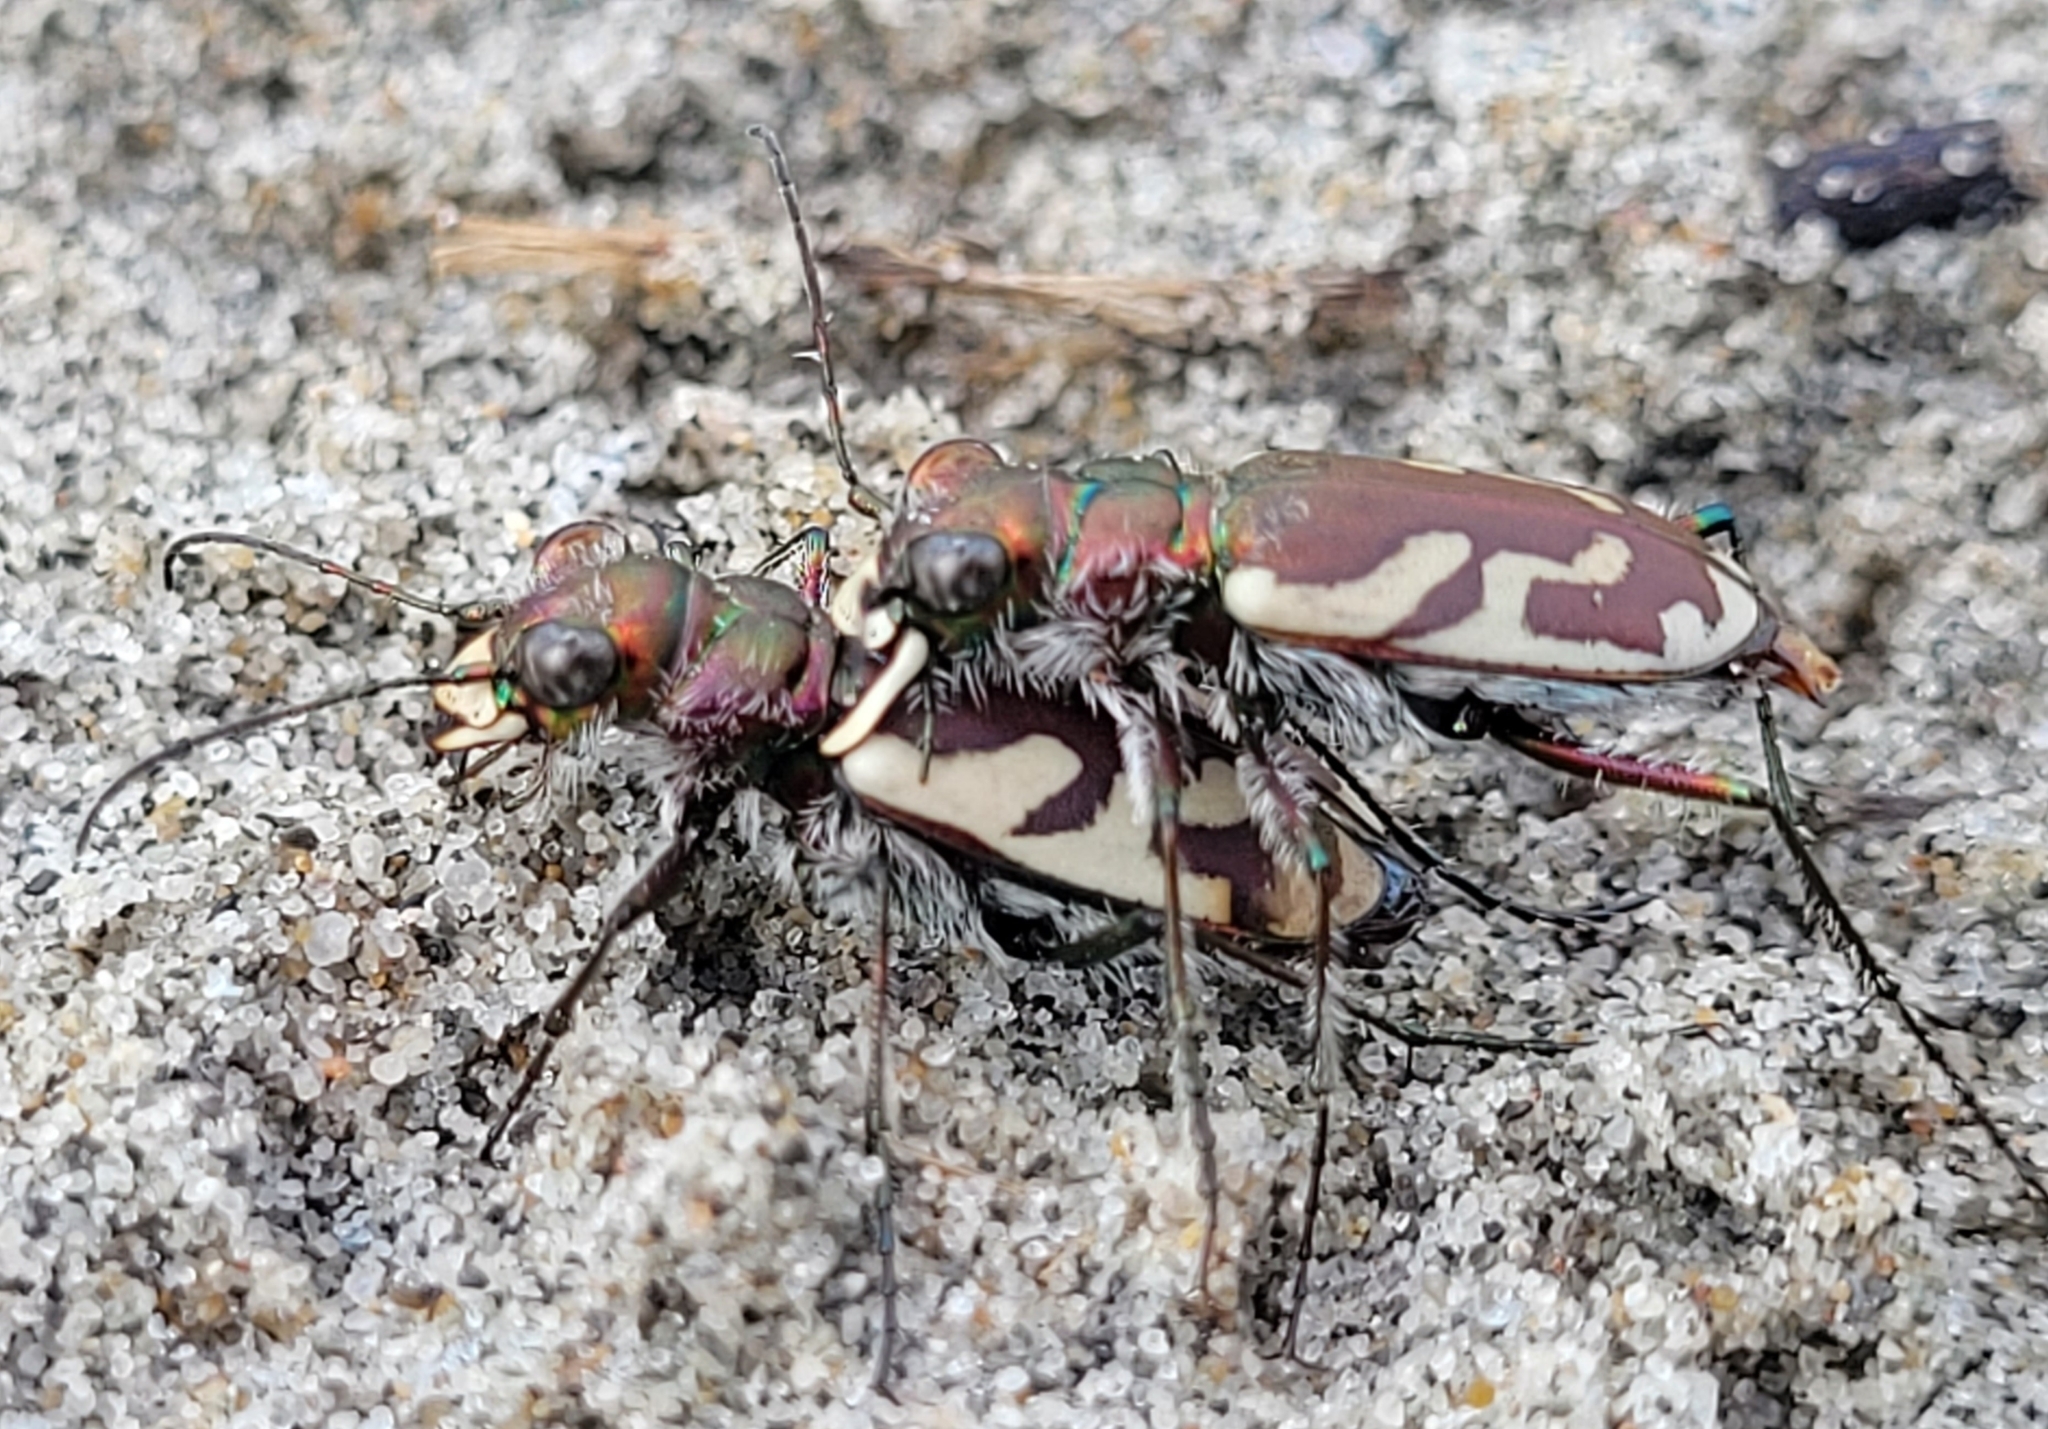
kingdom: Animalia
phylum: Arthropoda
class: Insecta
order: Coleoptera
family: Carabidae
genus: Cicindela
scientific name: Cicindela lengi
